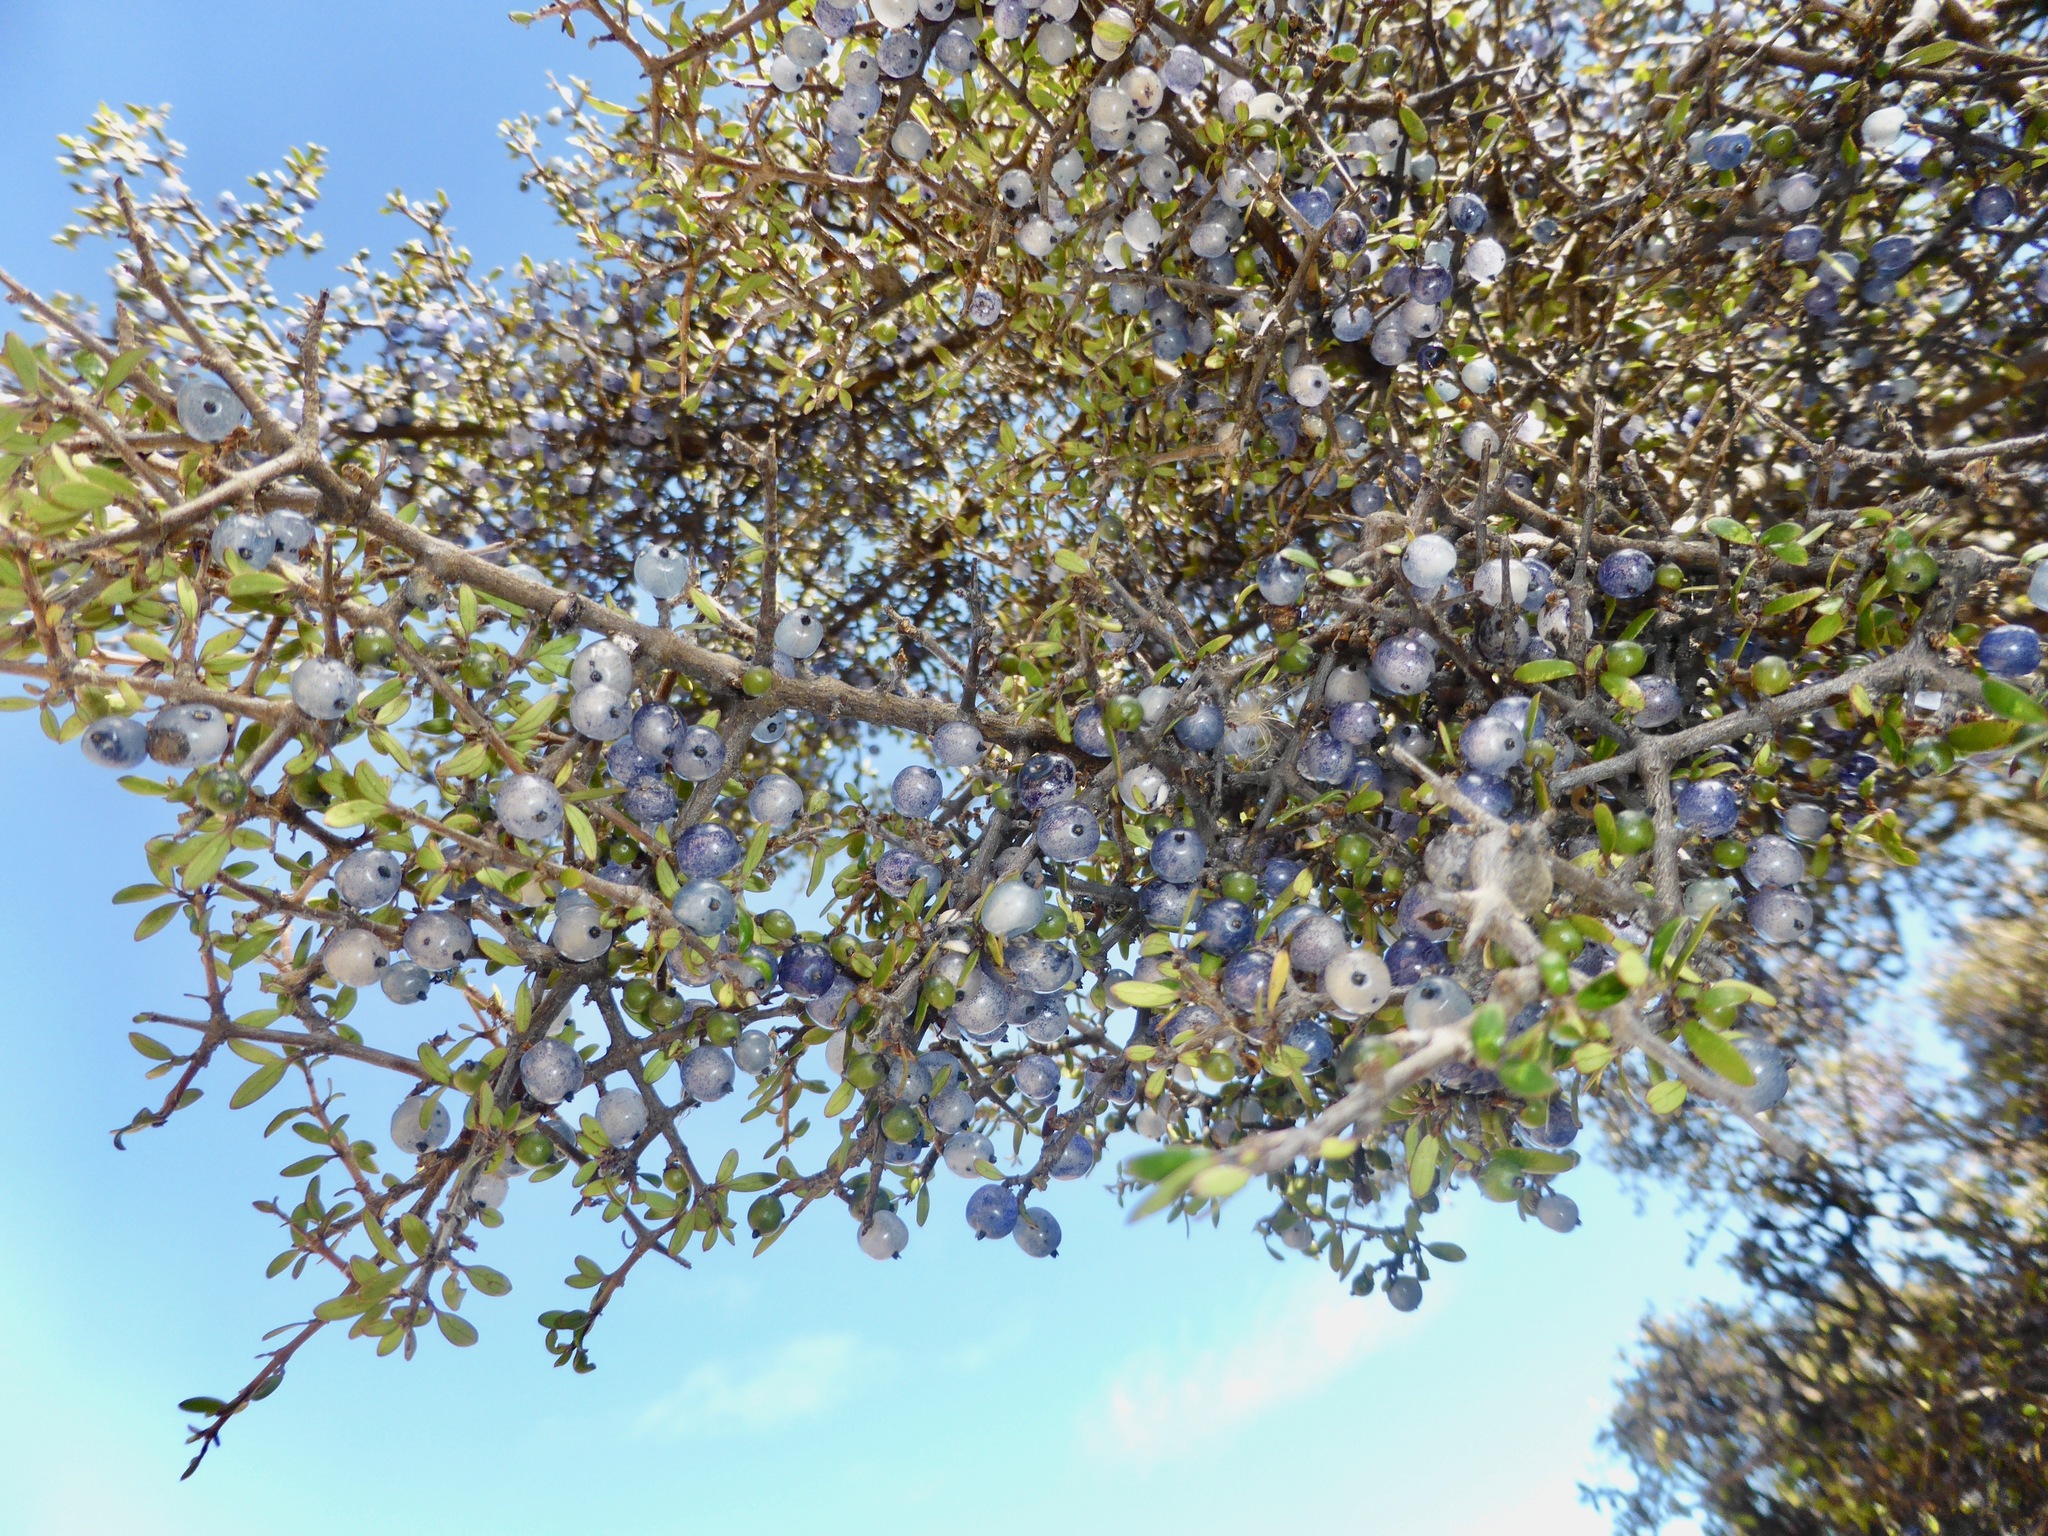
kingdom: Plantae
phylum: Tracheophyta
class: Magnoliopsida
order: Gentianales
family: Rubiaceae
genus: Coprosma
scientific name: Coprosma propinqua
